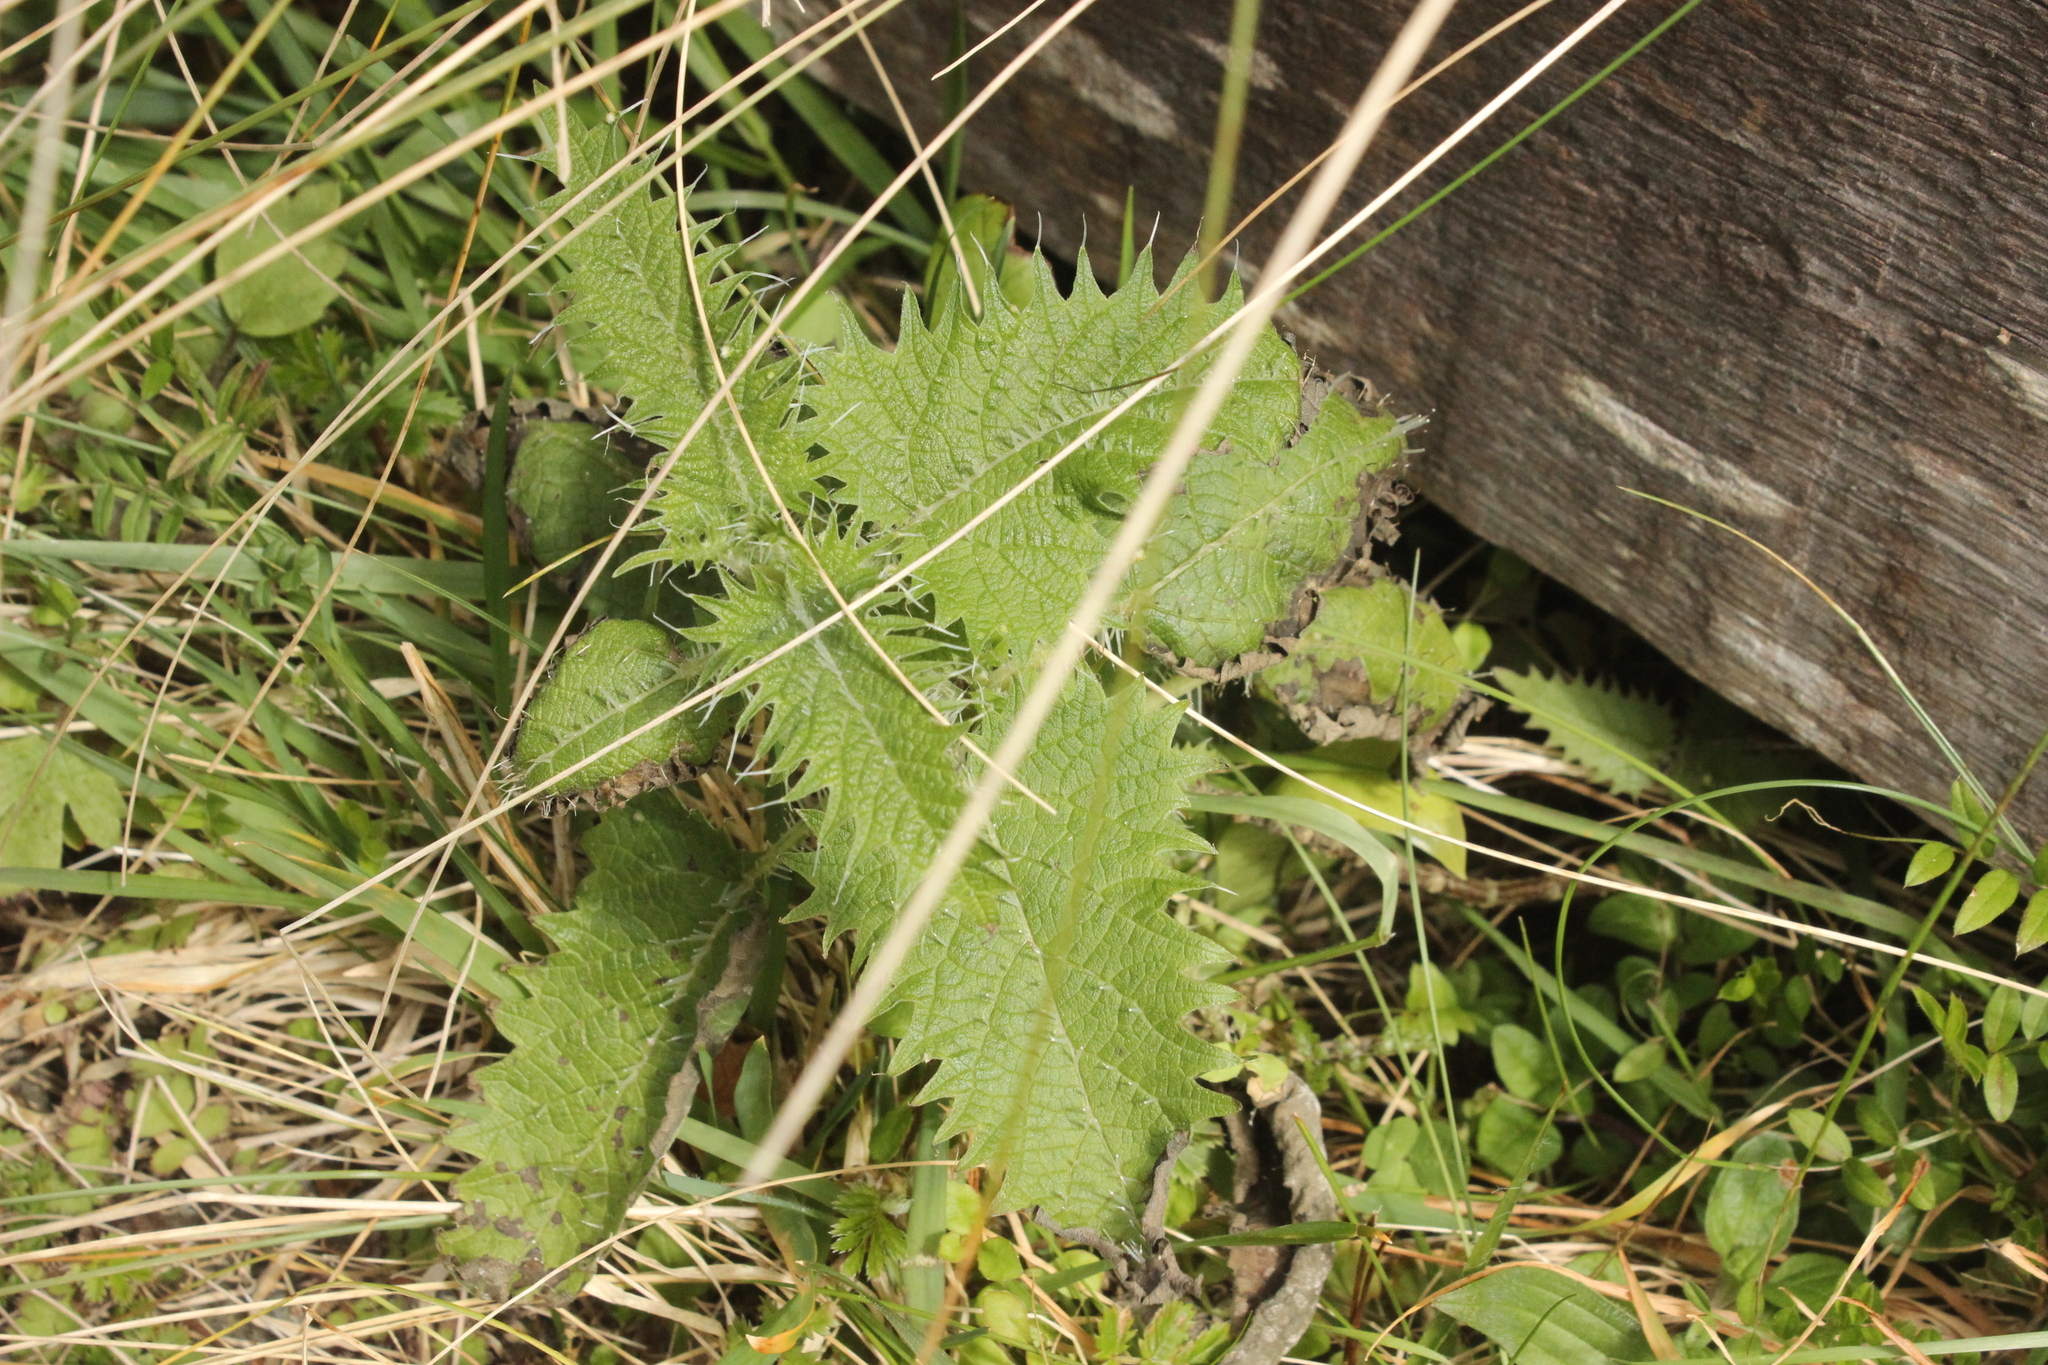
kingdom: Plantae
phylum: Tracheophyta
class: Magnoliopsida
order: Rosales
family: Urticaceae
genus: Urtica
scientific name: Urtica ferox
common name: Tree nettle
